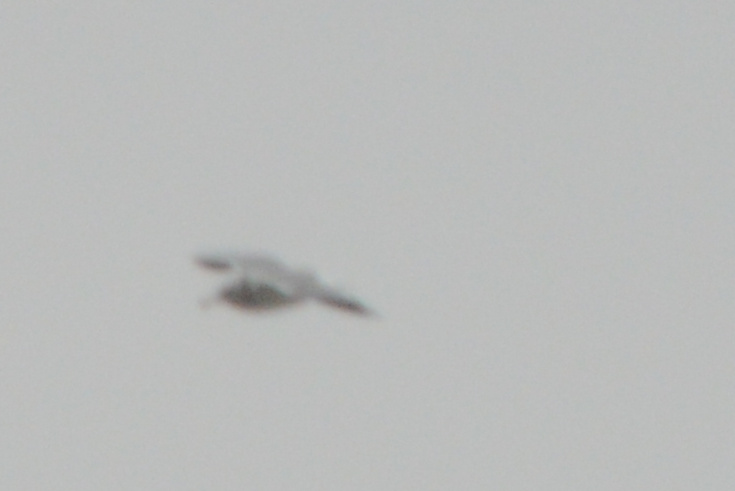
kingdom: Animalia
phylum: Chordata
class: Aves
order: Charadriiformes
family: Laridae
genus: Larus
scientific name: Larus
